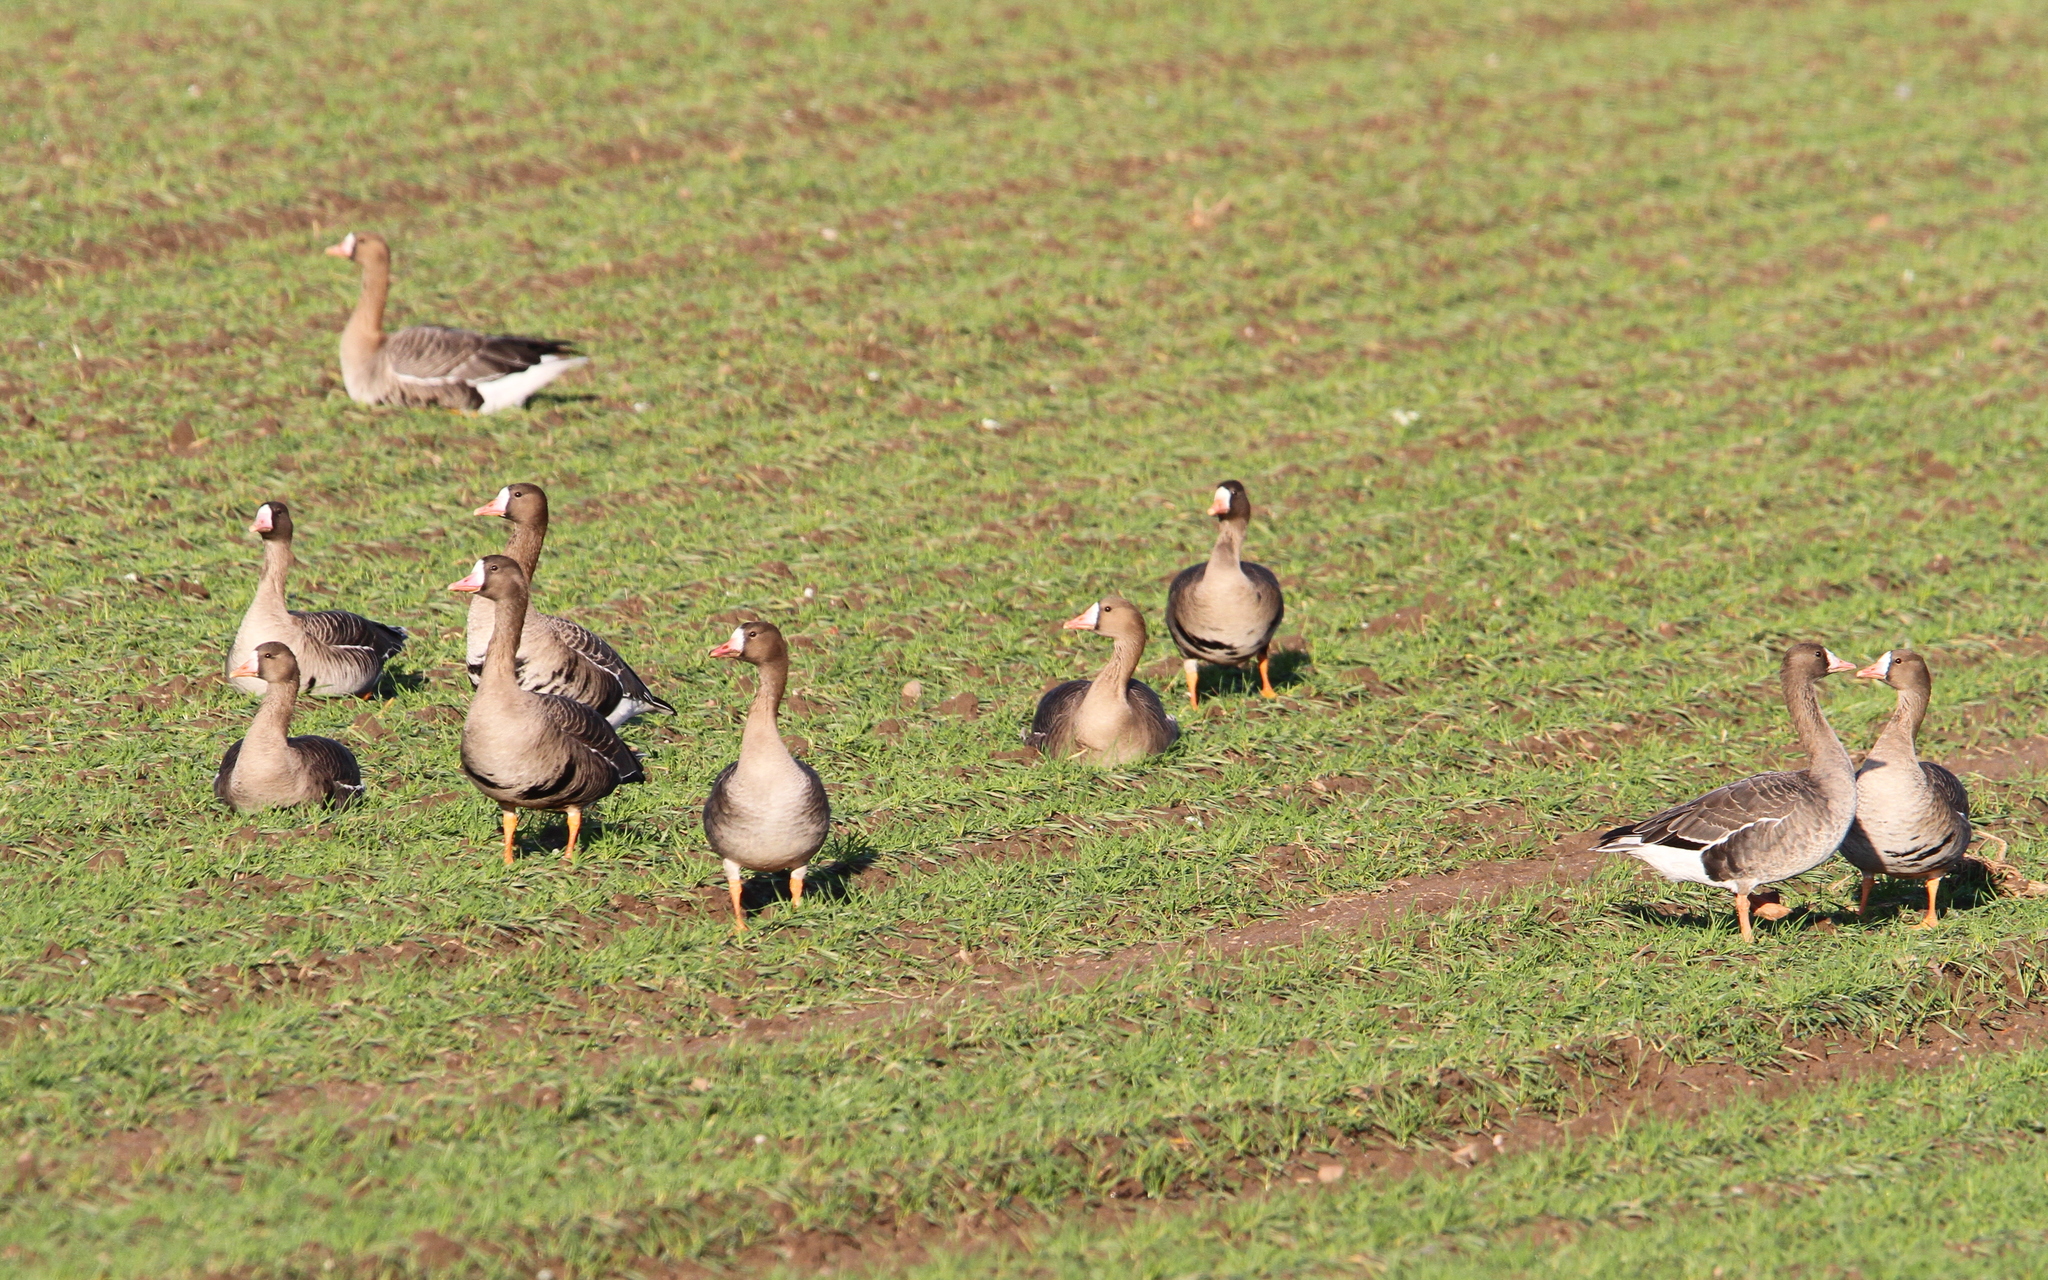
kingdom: Animalia
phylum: Chordata
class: Aves
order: Anseriformes
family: Anatidae
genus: Anser
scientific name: Anser albifrons
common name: Greater white-fronted goose
